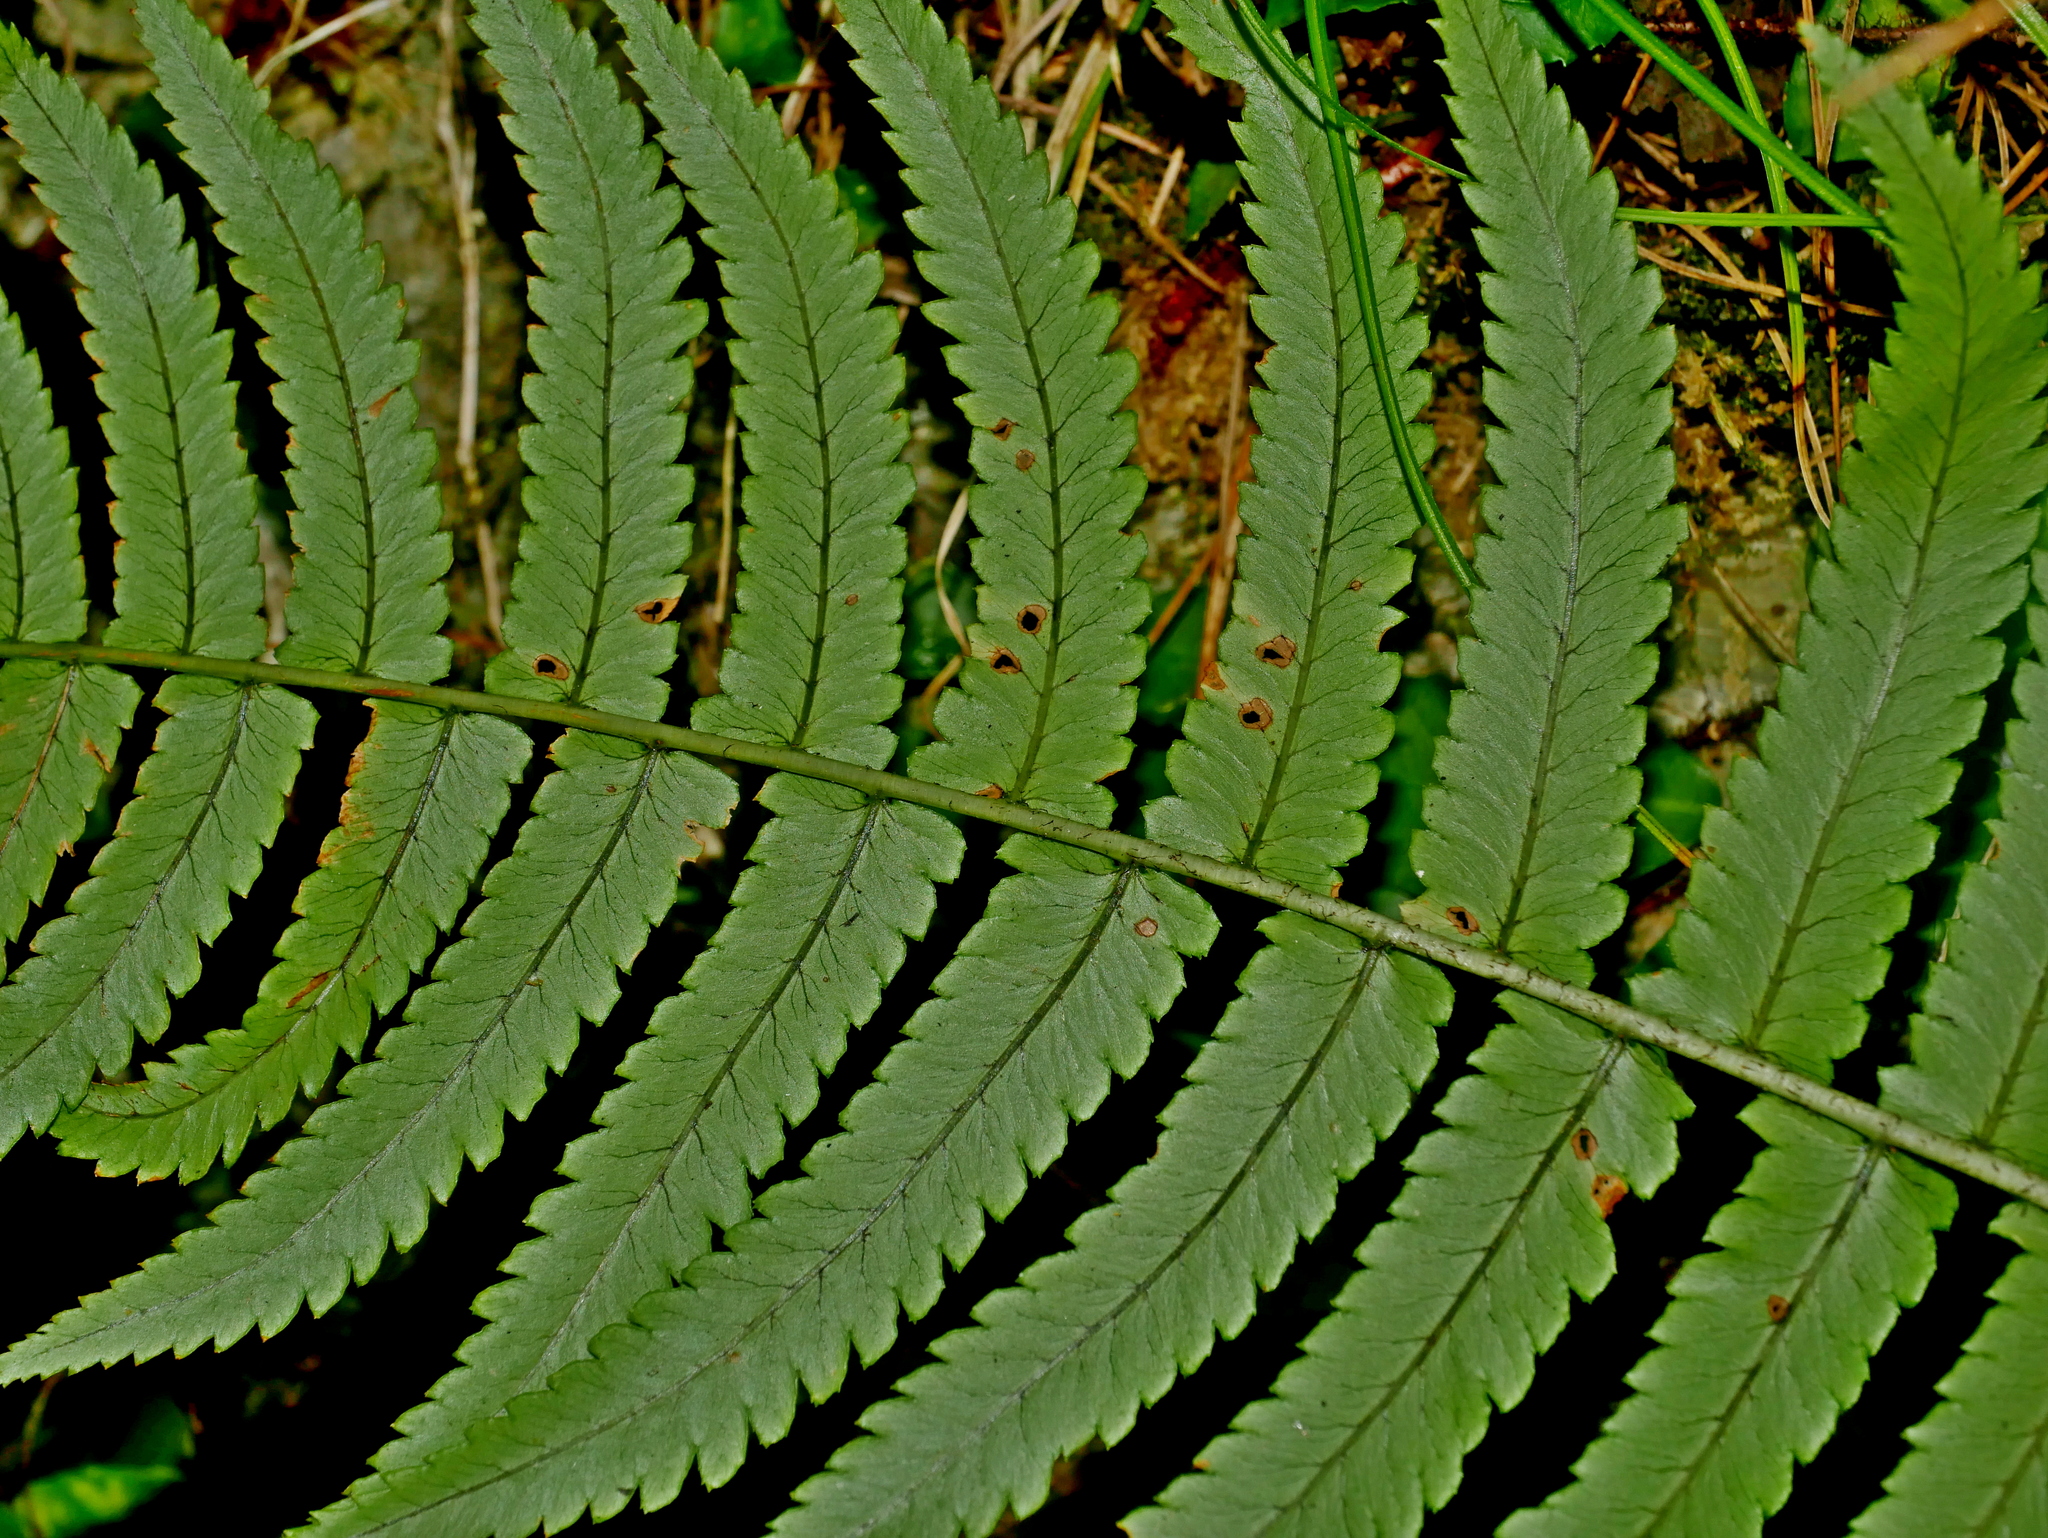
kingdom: Plantae
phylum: Tracheophyta
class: Polypodiopsida
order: Polypodiales
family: Dryopteridaceae
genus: Dryopteris
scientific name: Dryopteris cycadina
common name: Shaggy wood fern
